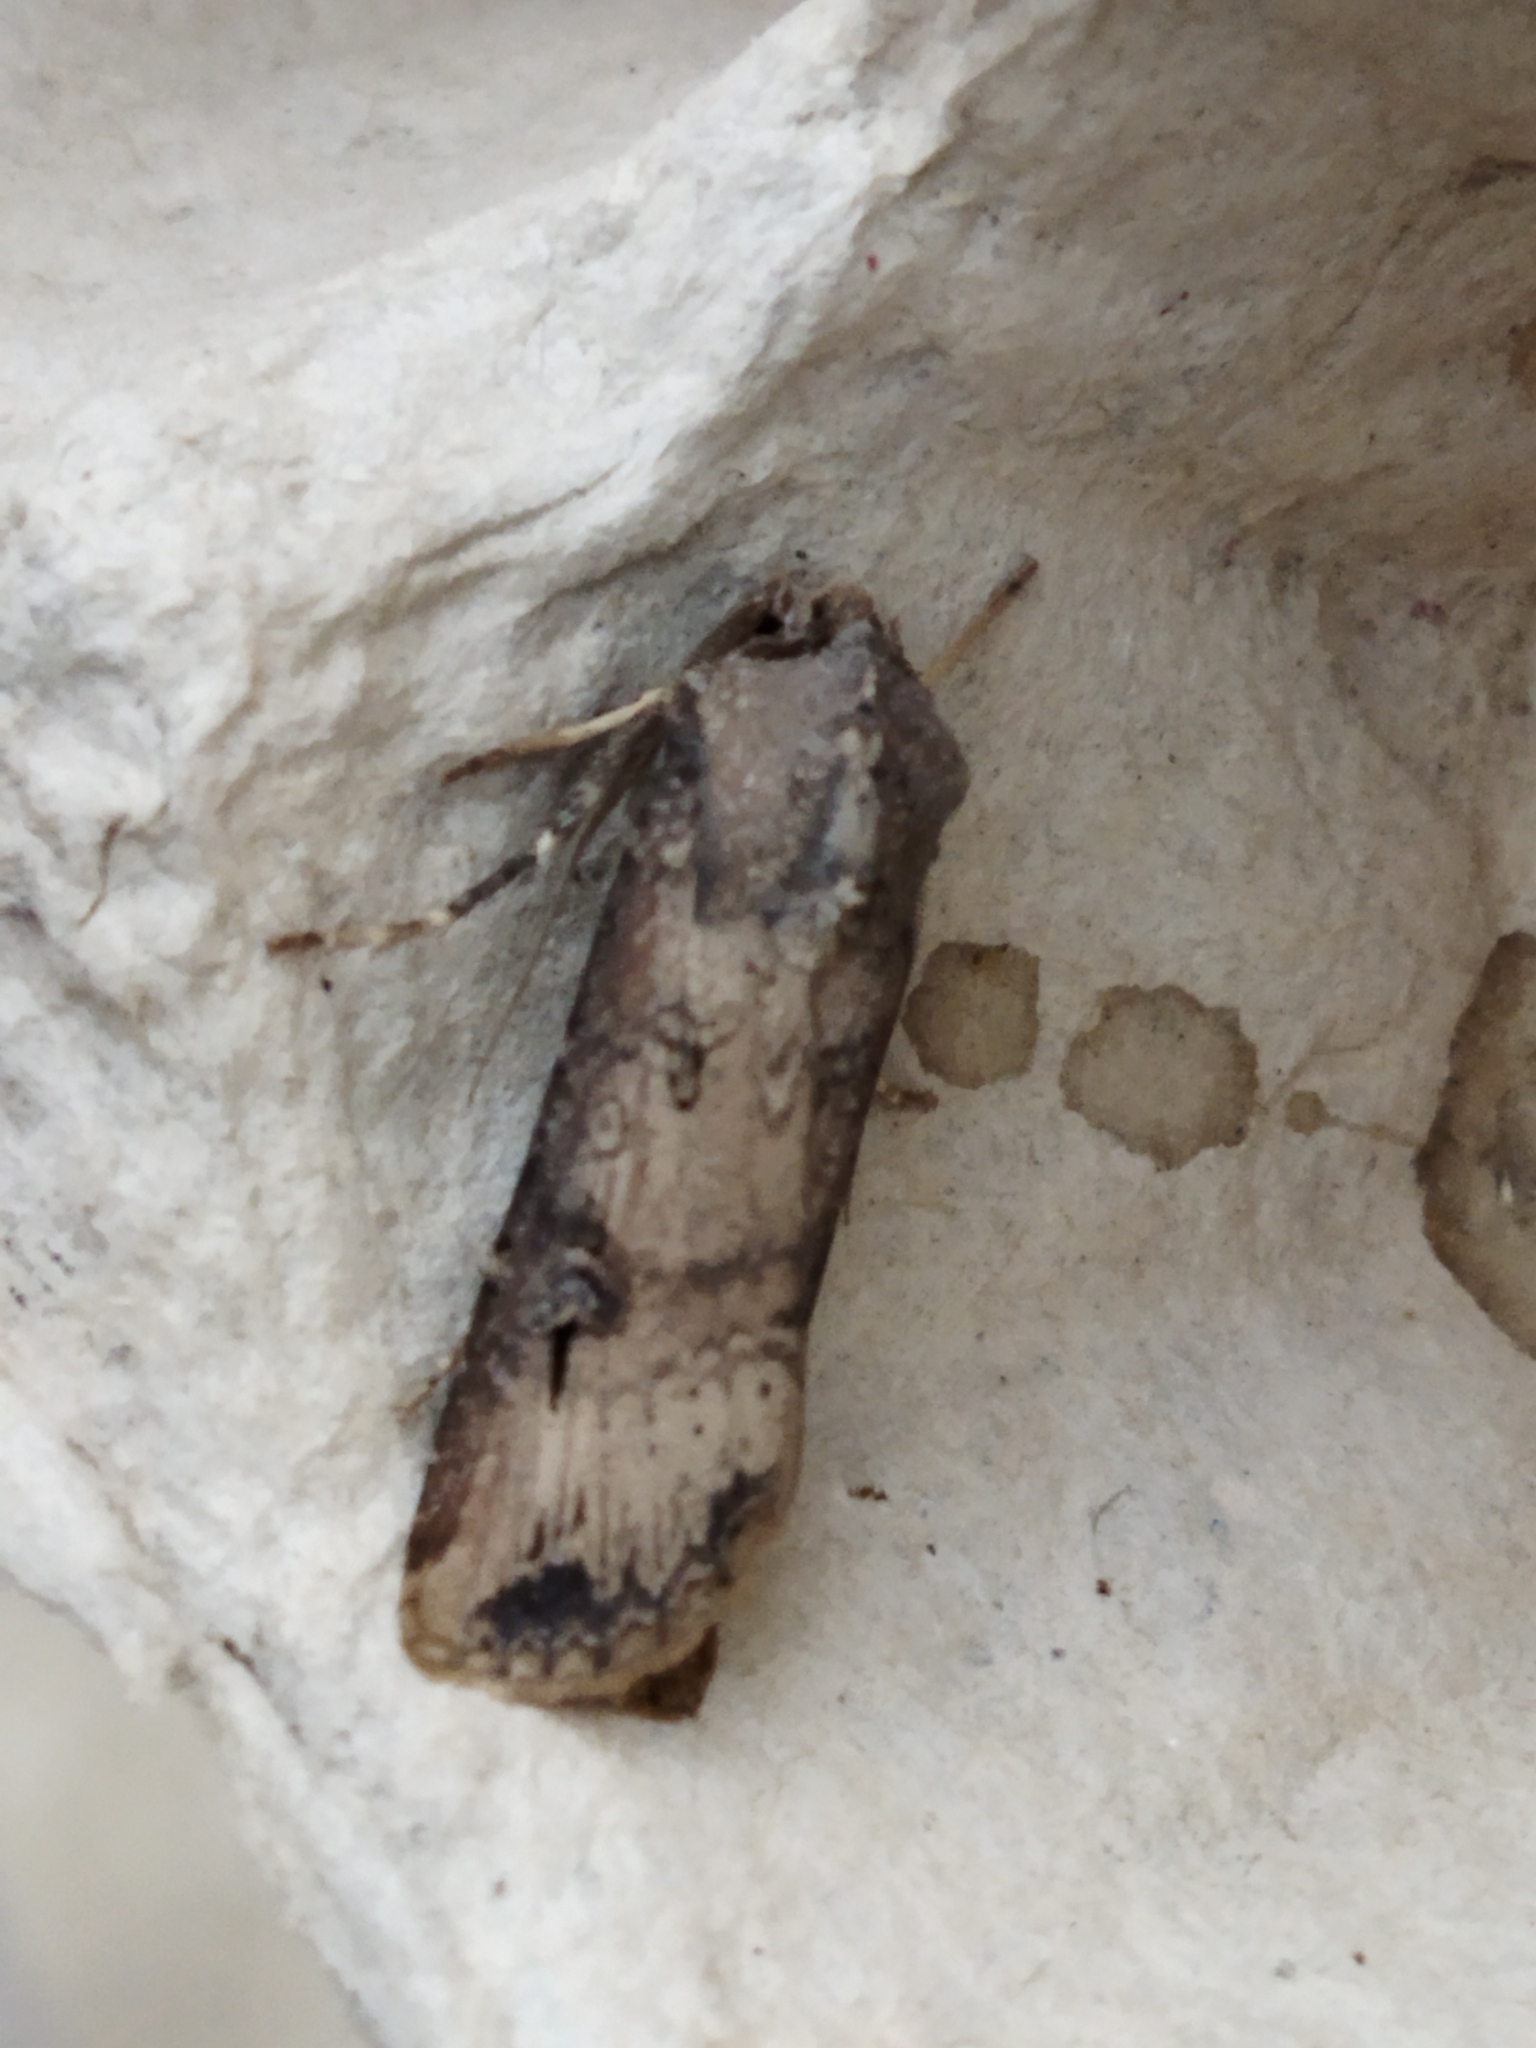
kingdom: Animalia
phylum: Arthropoda
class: Insecta
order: Lepidoptera
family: Noctuidae
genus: Agrotis
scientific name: Agrotis ipsilon
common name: Dark sword-grass
